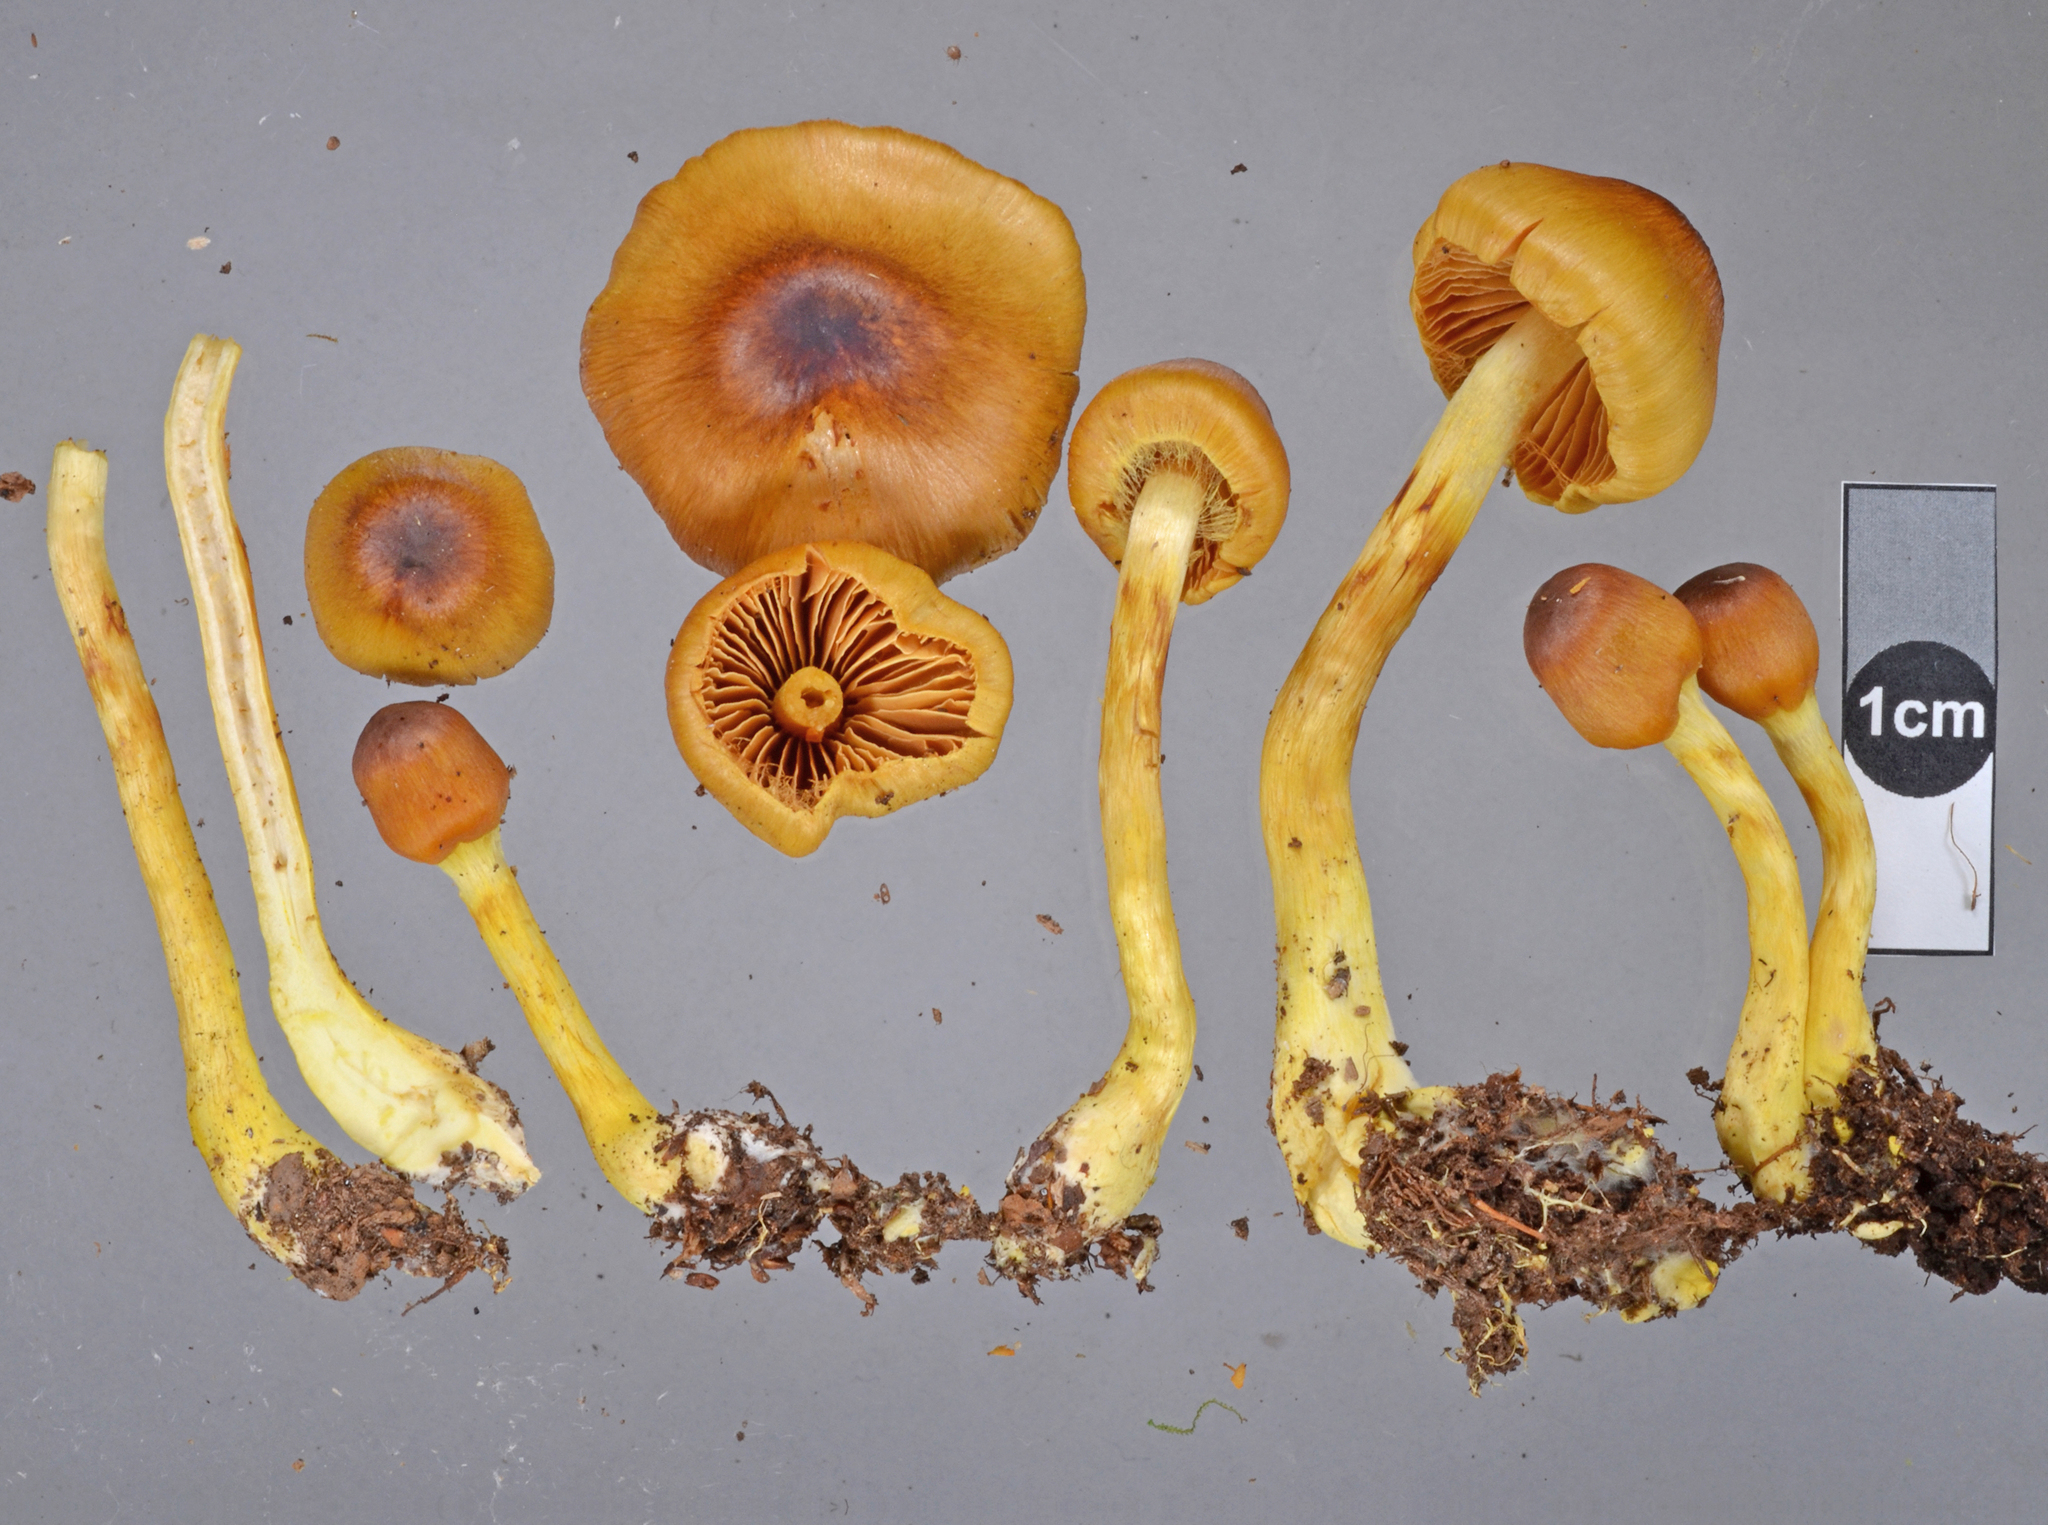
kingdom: Fungi
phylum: Basidiomycota
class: Agaricomycetes
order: Agaricales
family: Cortinariaceae
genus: Cortinarius
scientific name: Cortinarius castaneodiscus
